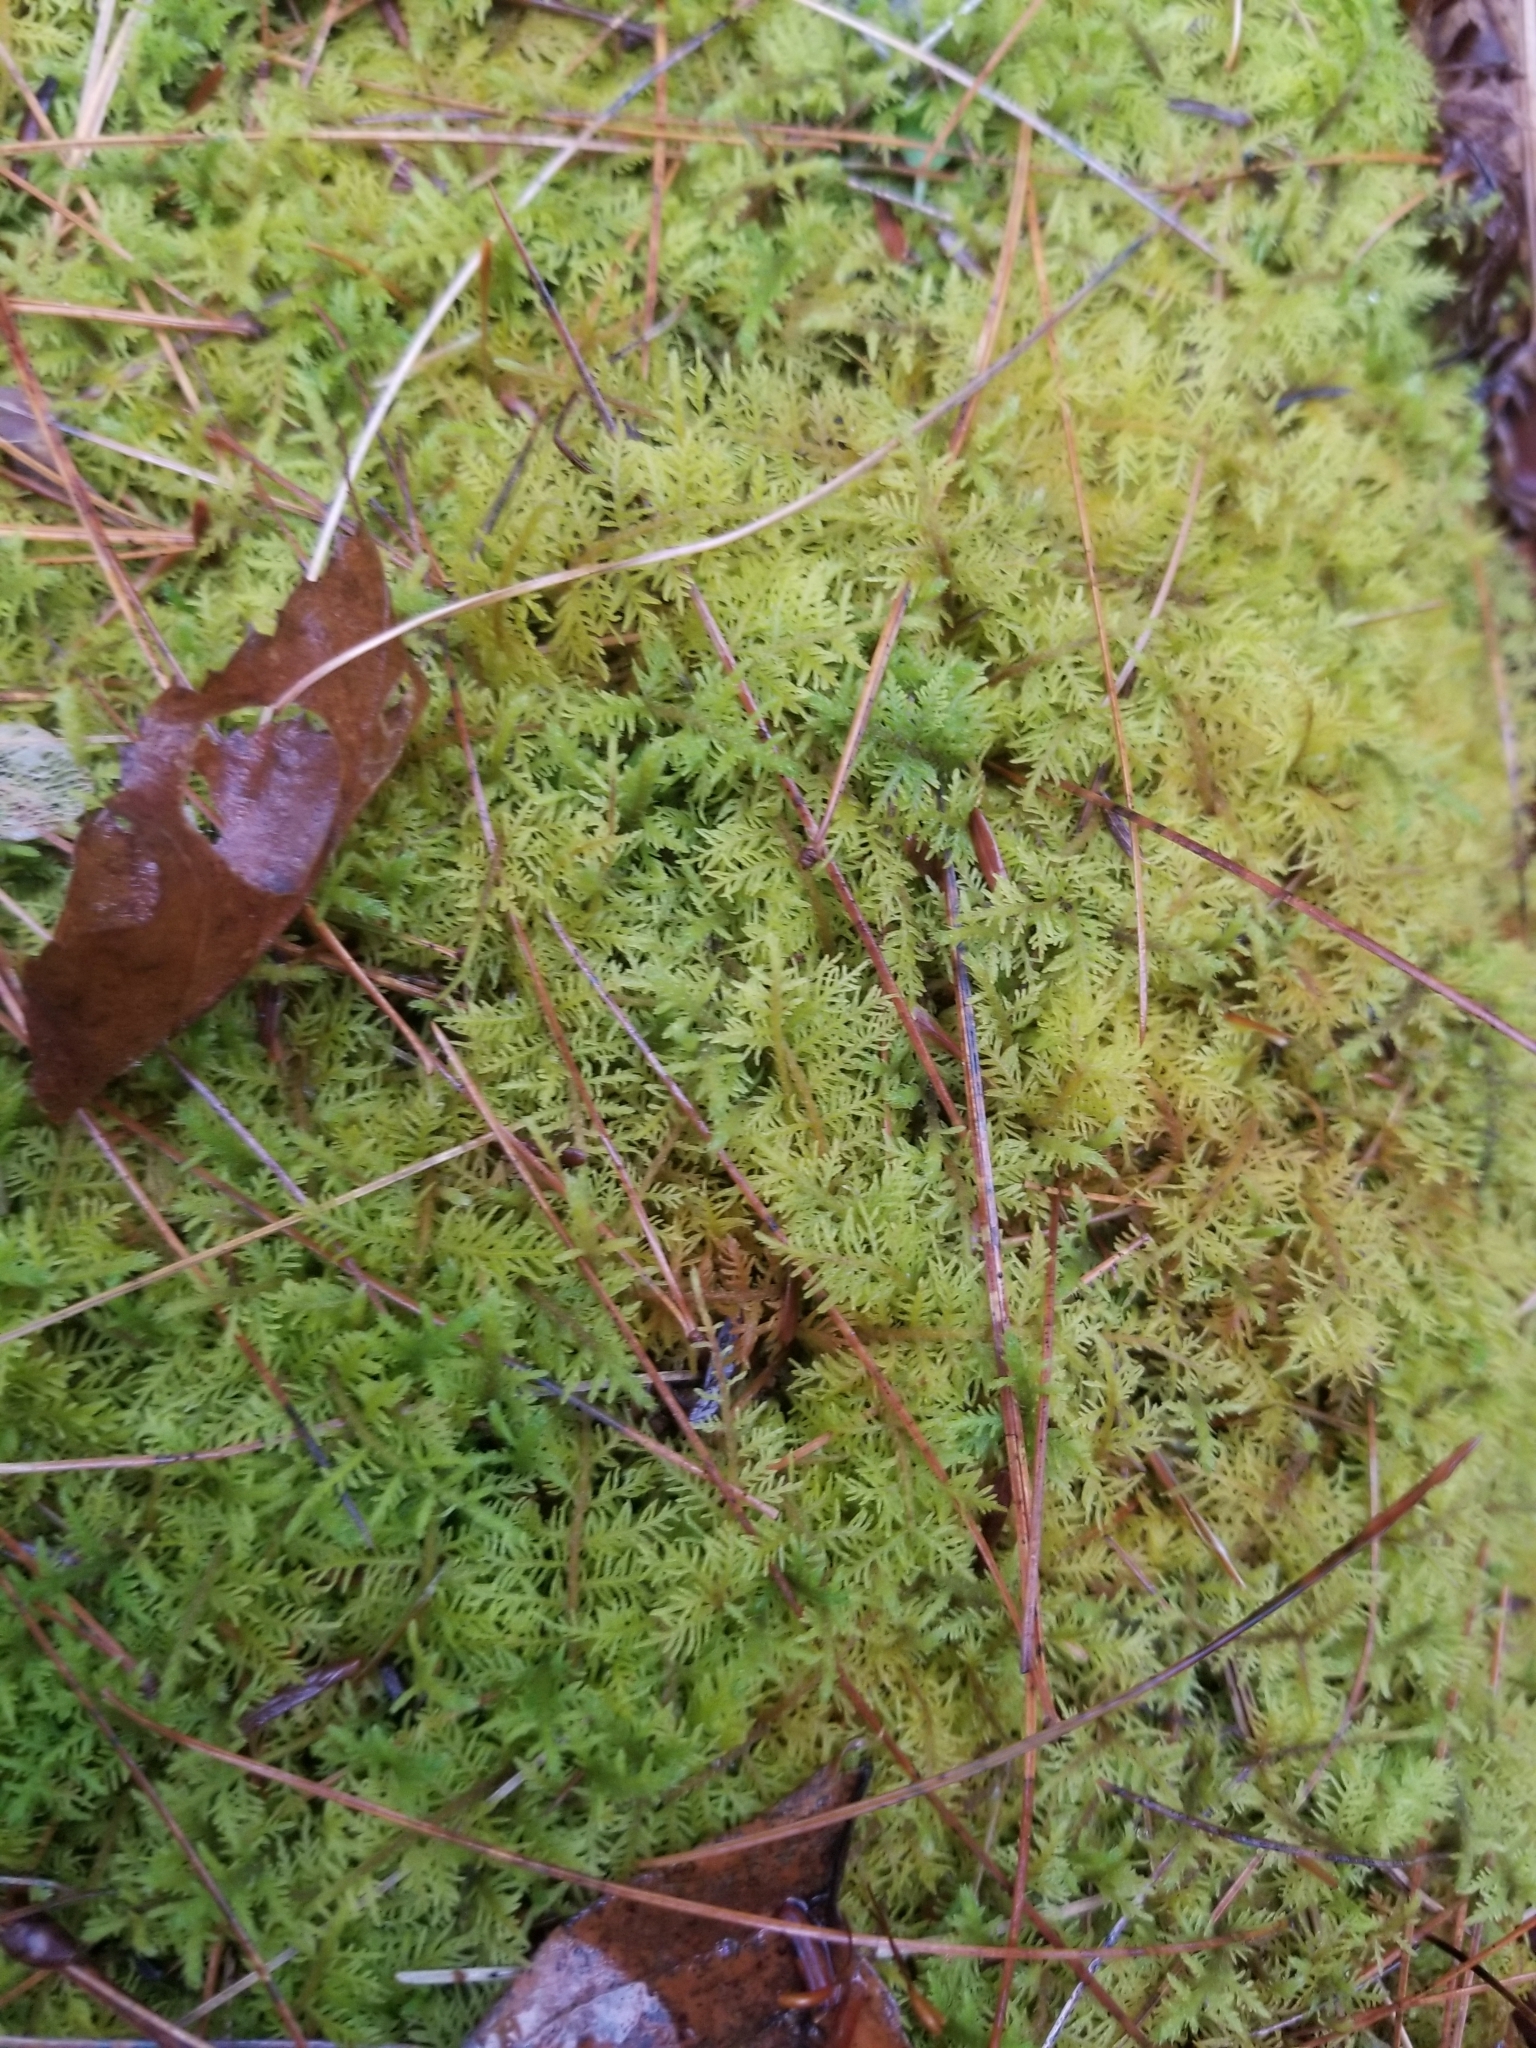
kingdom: Plantae
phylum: Bryophyta
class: Bryopsida
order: Hypnales
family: Thuidiaceae
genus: Thuidium
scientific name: Thuidium delicatulum
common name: Delicate fern moss
